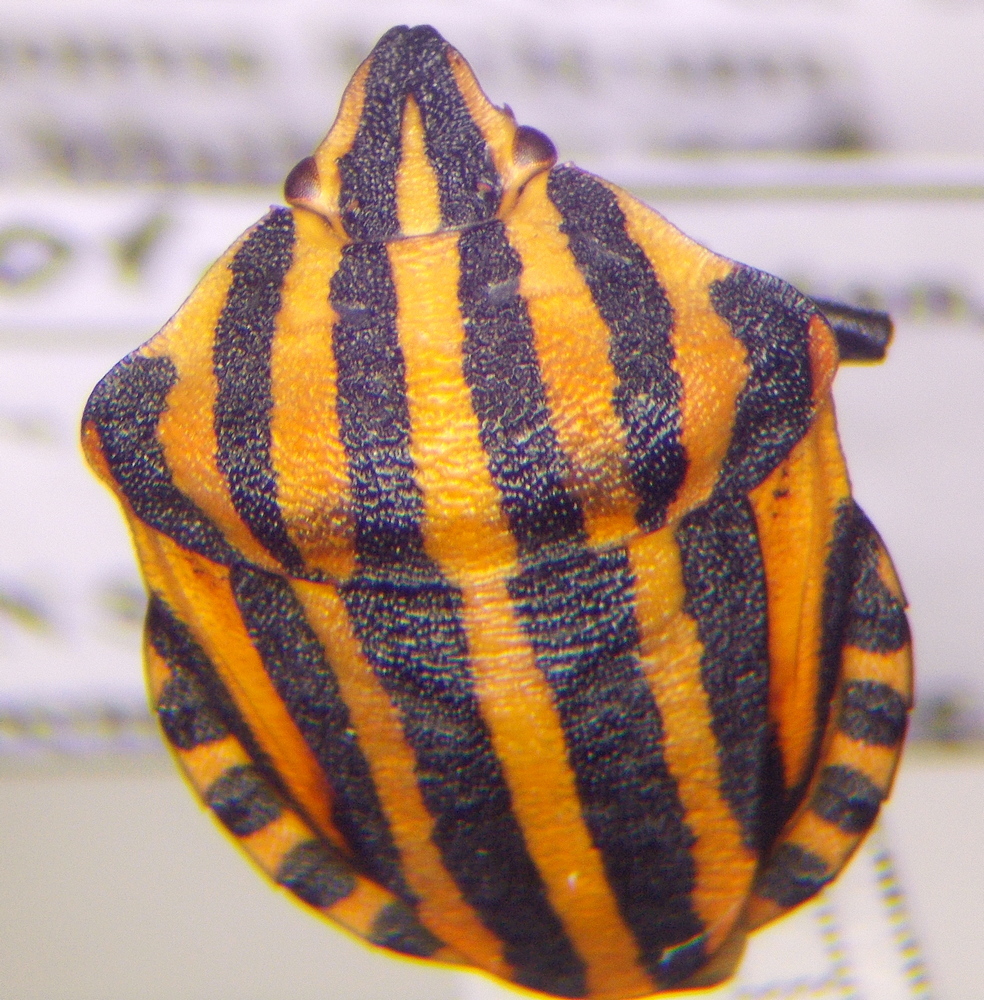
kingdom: Animalia
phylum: Arthropoda
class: Insecta
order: Hemiptera
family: Pentatomidae
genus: Graphosoma
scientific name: Graphosoma italicum
